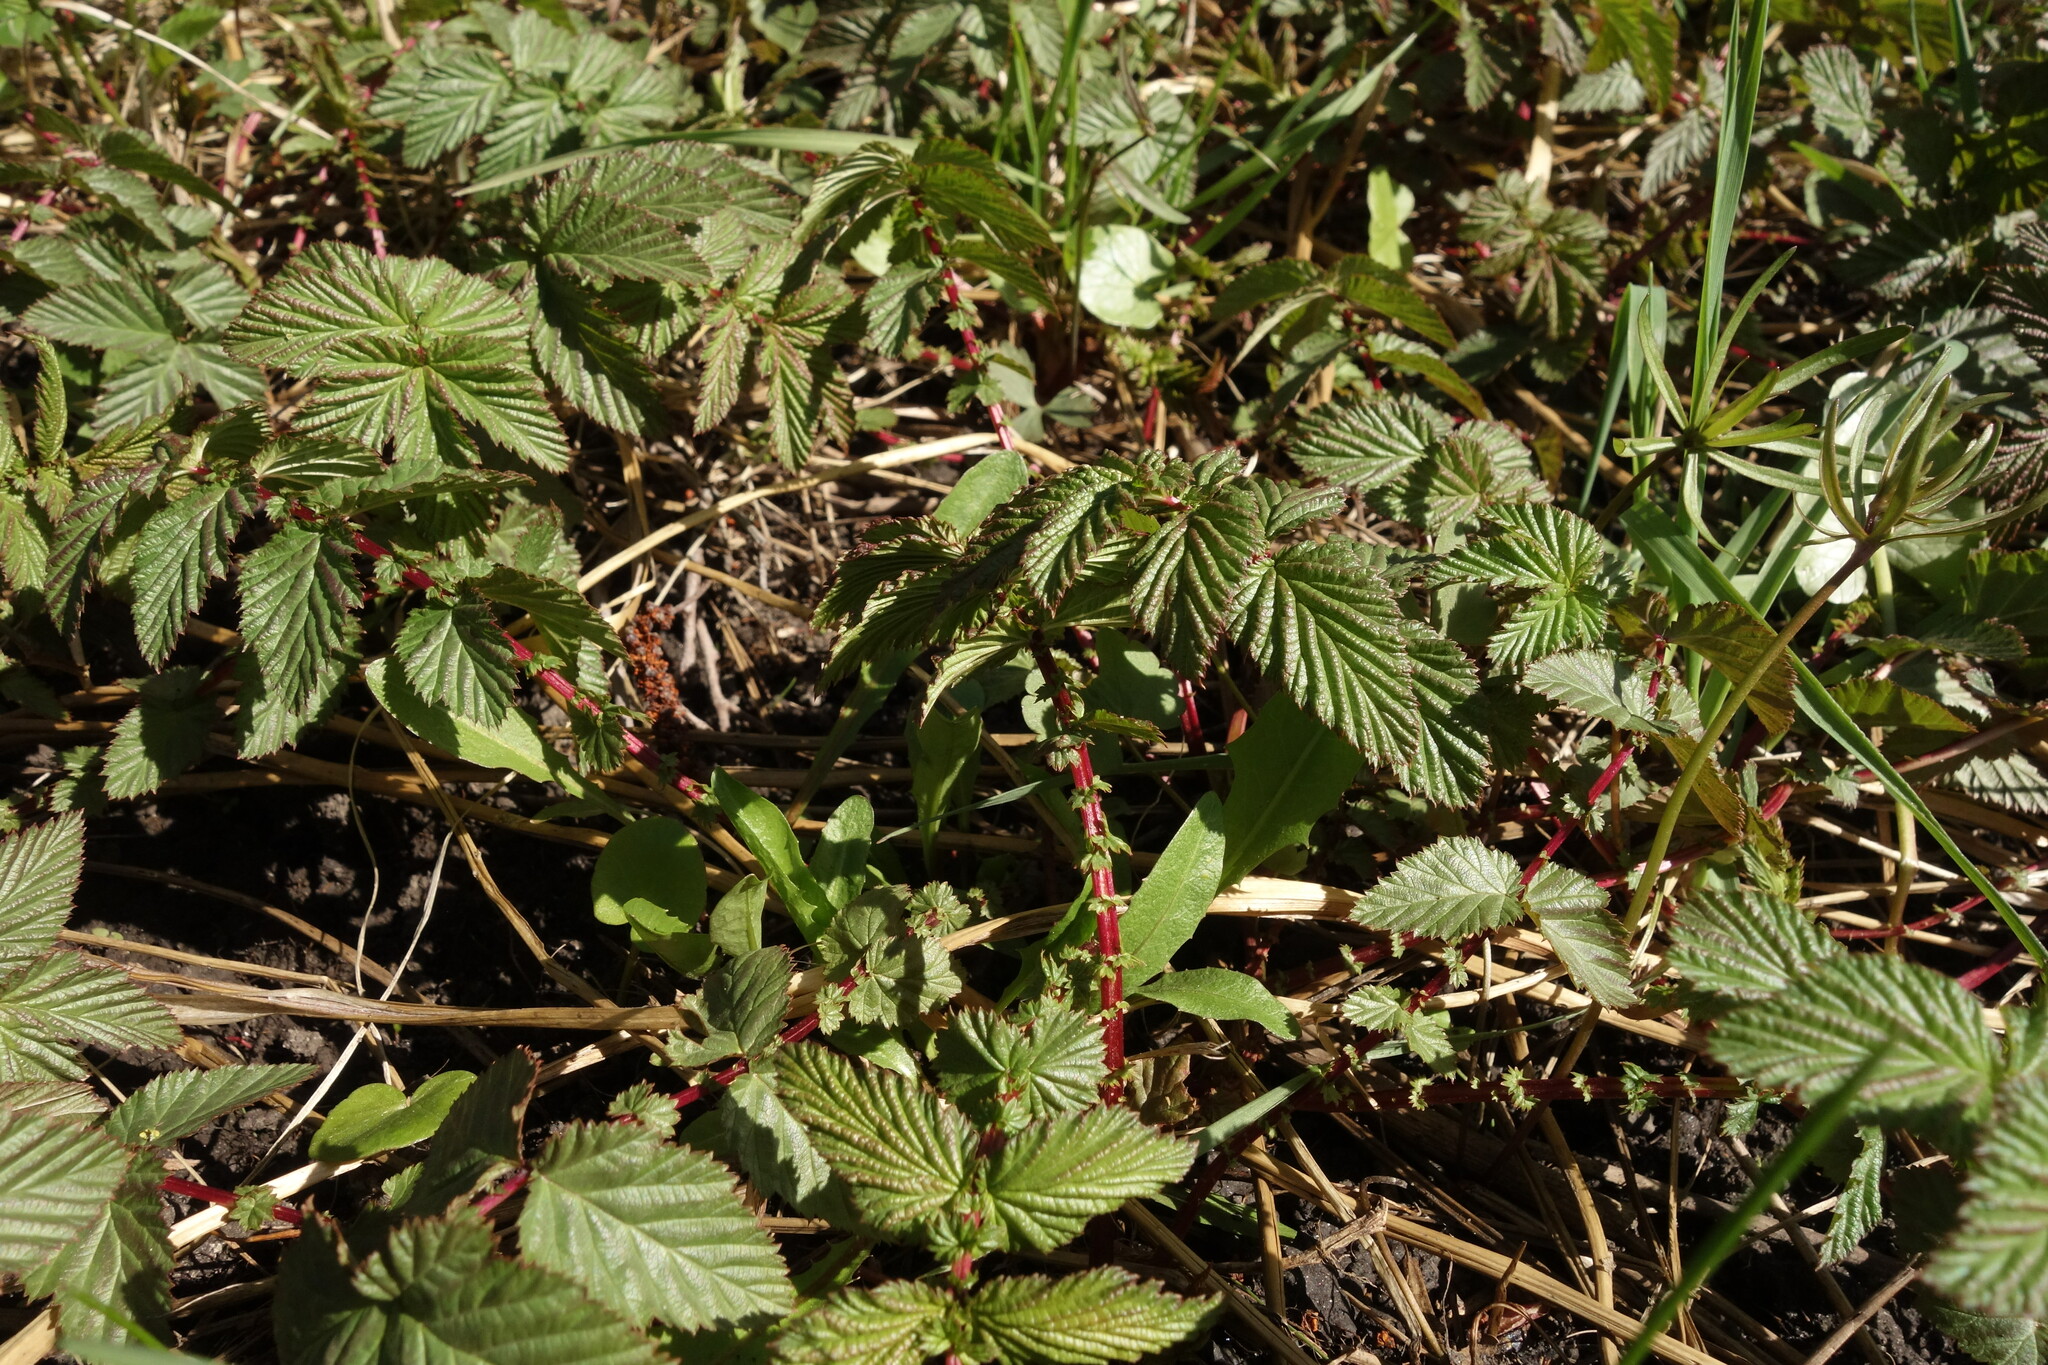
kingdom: Plantae
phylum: Tracheophyta
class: Magnoliopsida
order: Rosales
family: Rosaceae
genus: Filipendula
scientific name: Filipendula ulmaria
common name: Meadowsweet
